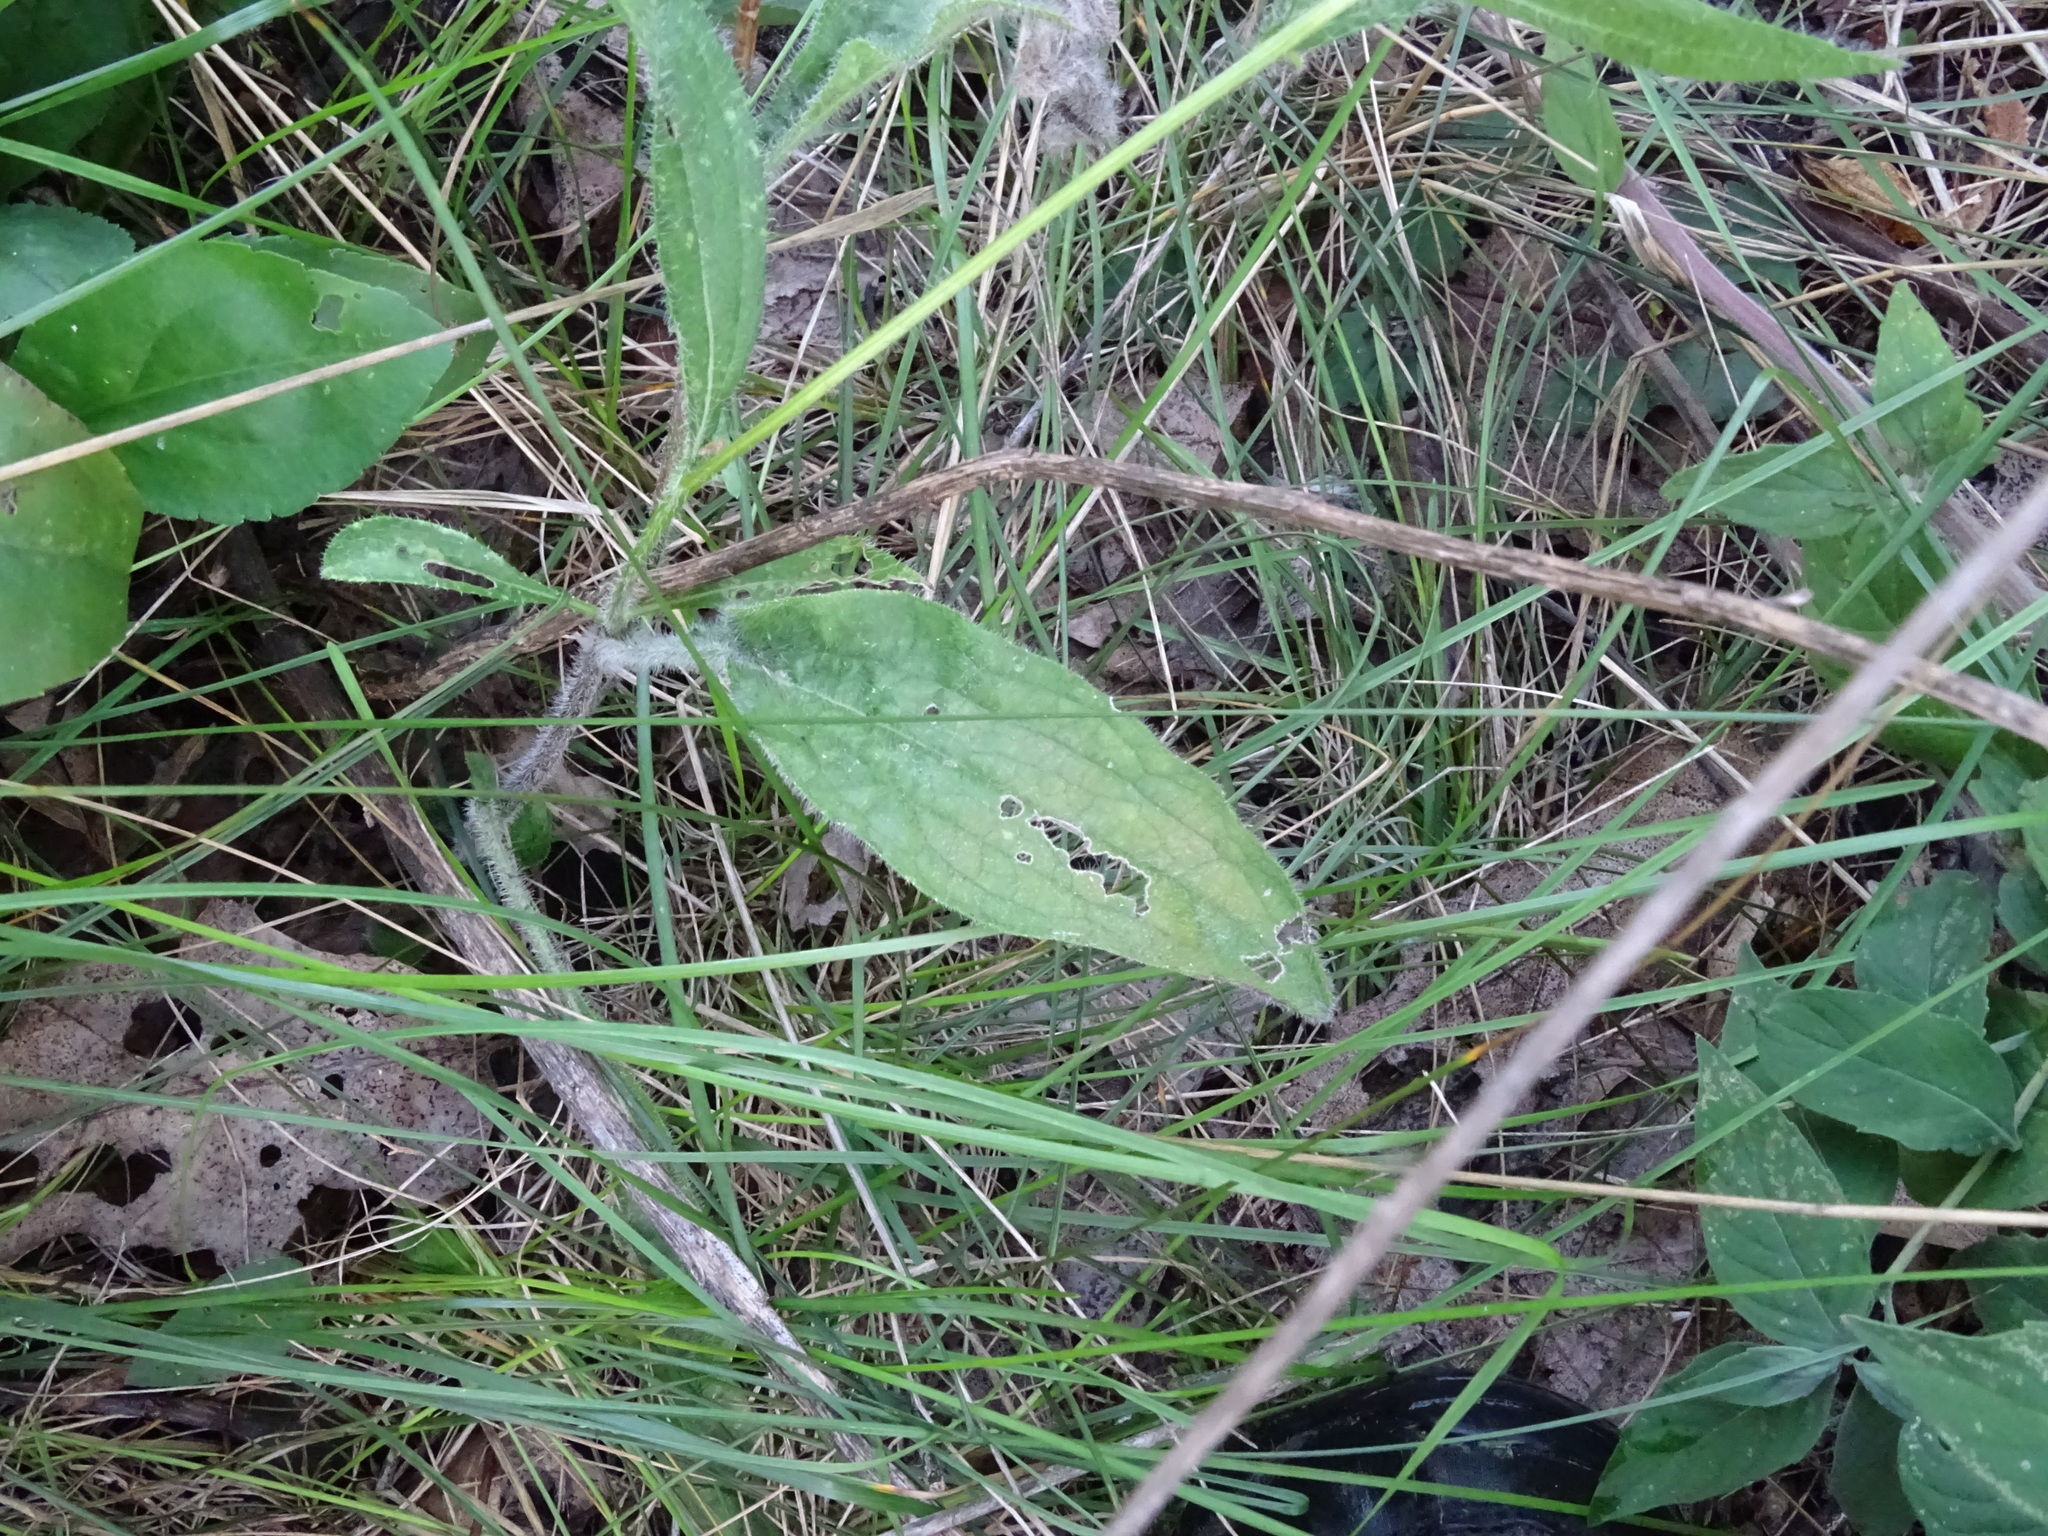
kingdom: Plantae
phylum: Tracheophyta
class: Magnoliopsida
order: Asterales
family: Asteraceae
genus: Rudbeckia
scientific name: Rudbeckia hirta
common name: Black-eyed-susan
